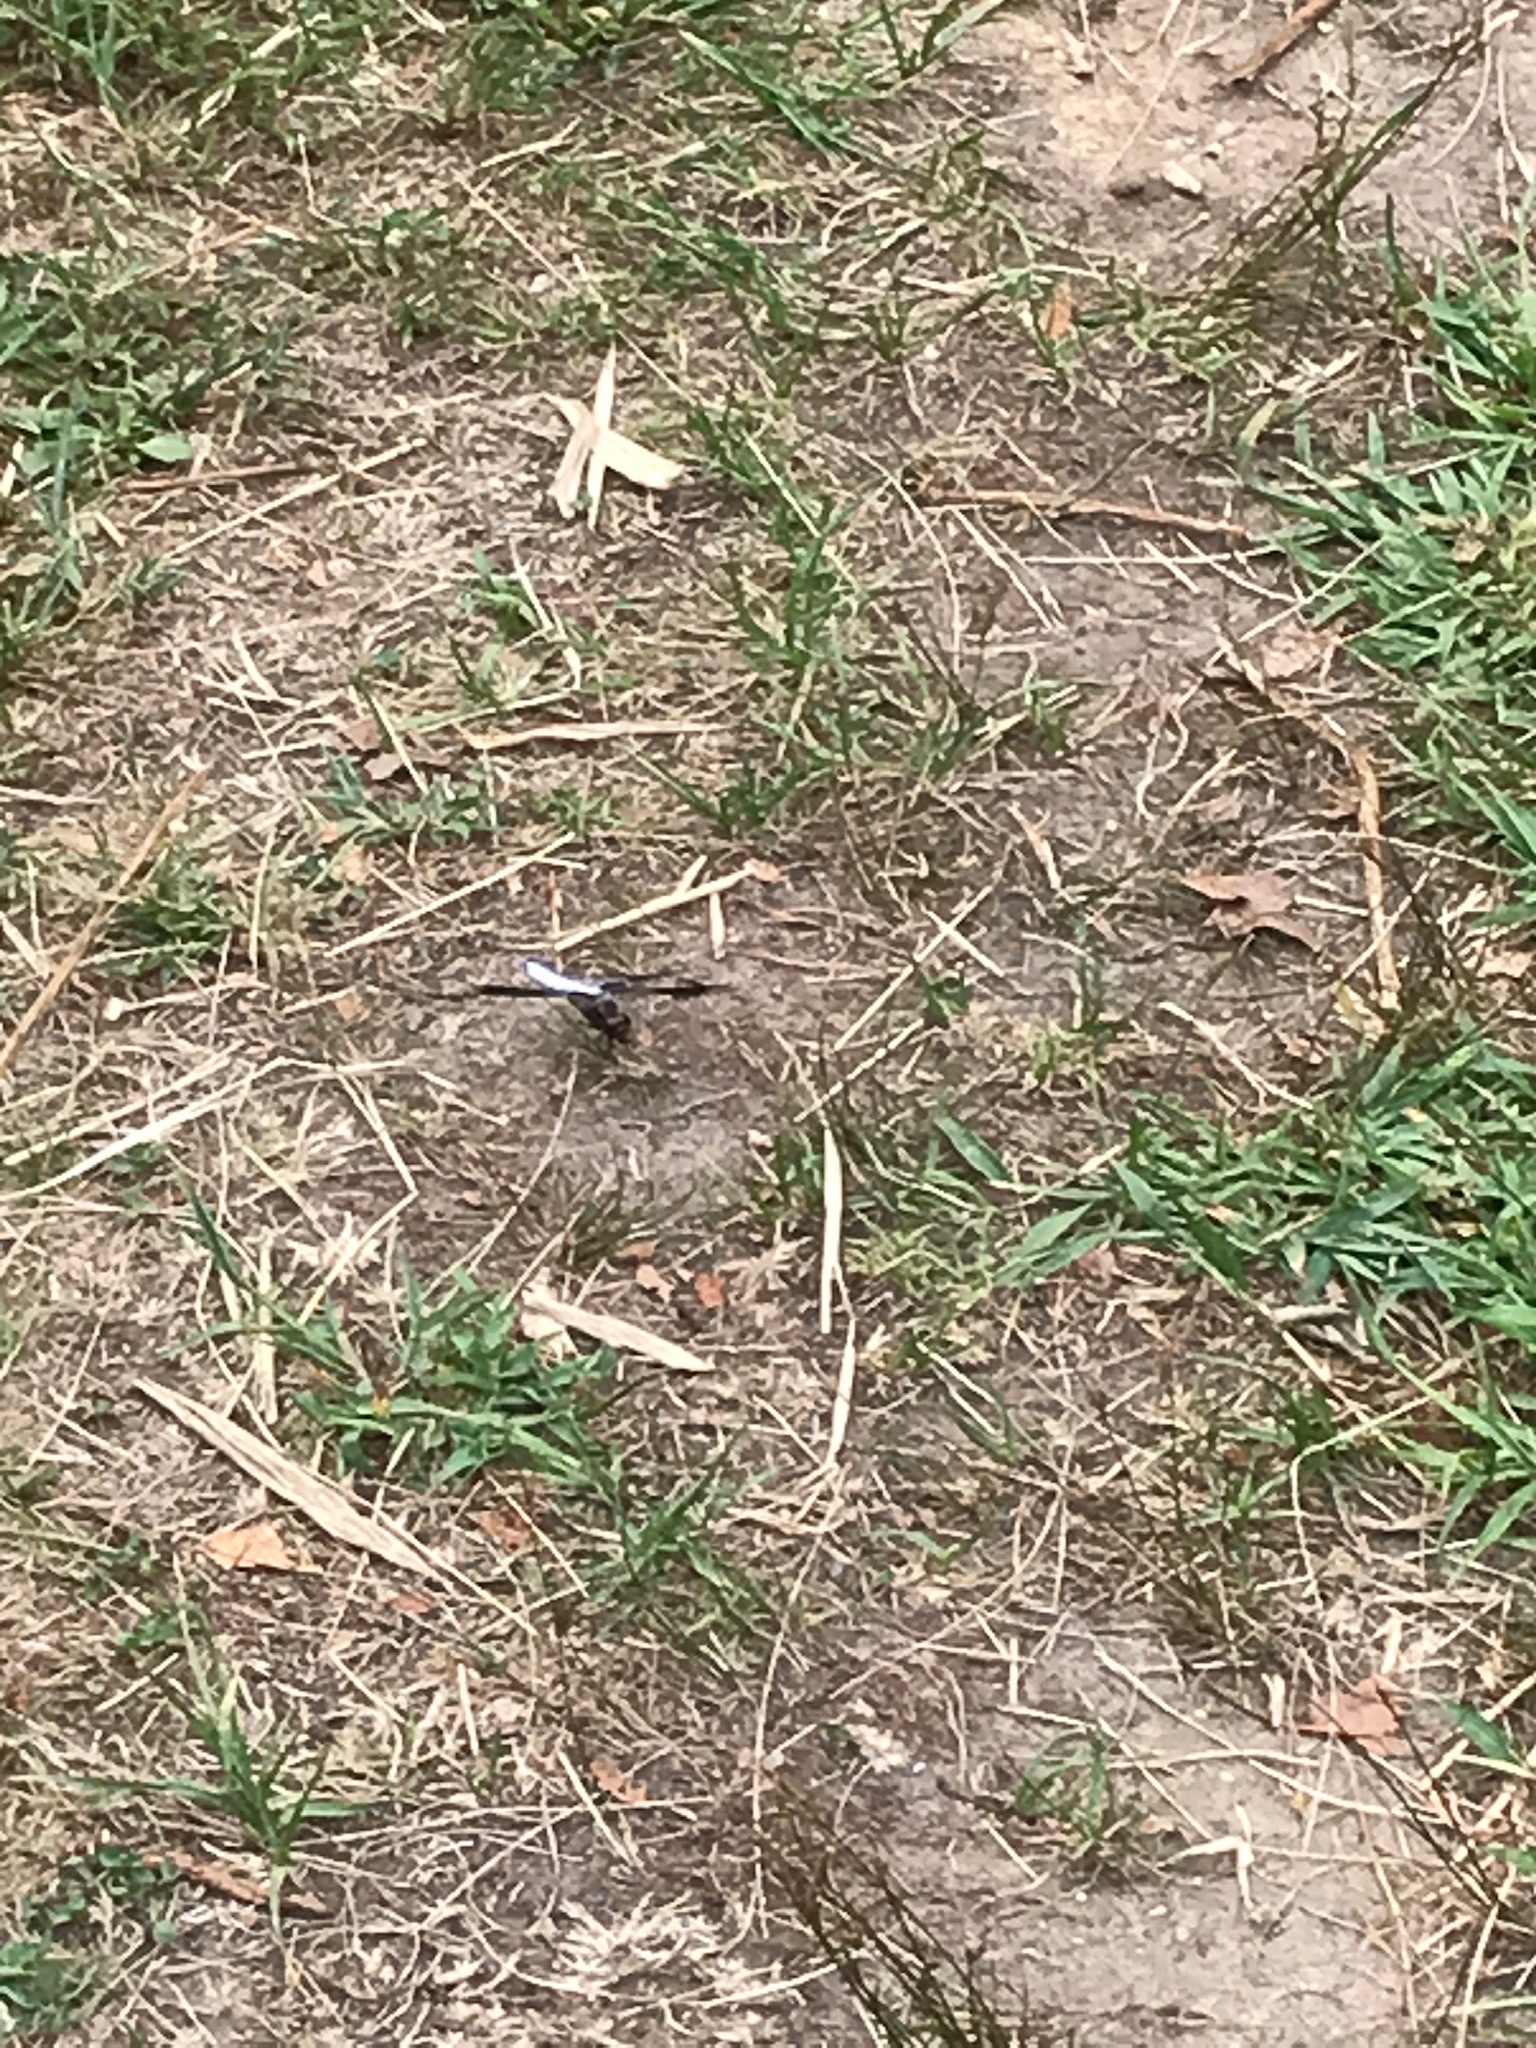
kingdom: Animalia
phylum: Arthropoda
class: Insecta
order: Odonata
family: Libellulidae
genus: Plathemis
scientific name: Plathemis lydia
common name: Common whitetail
